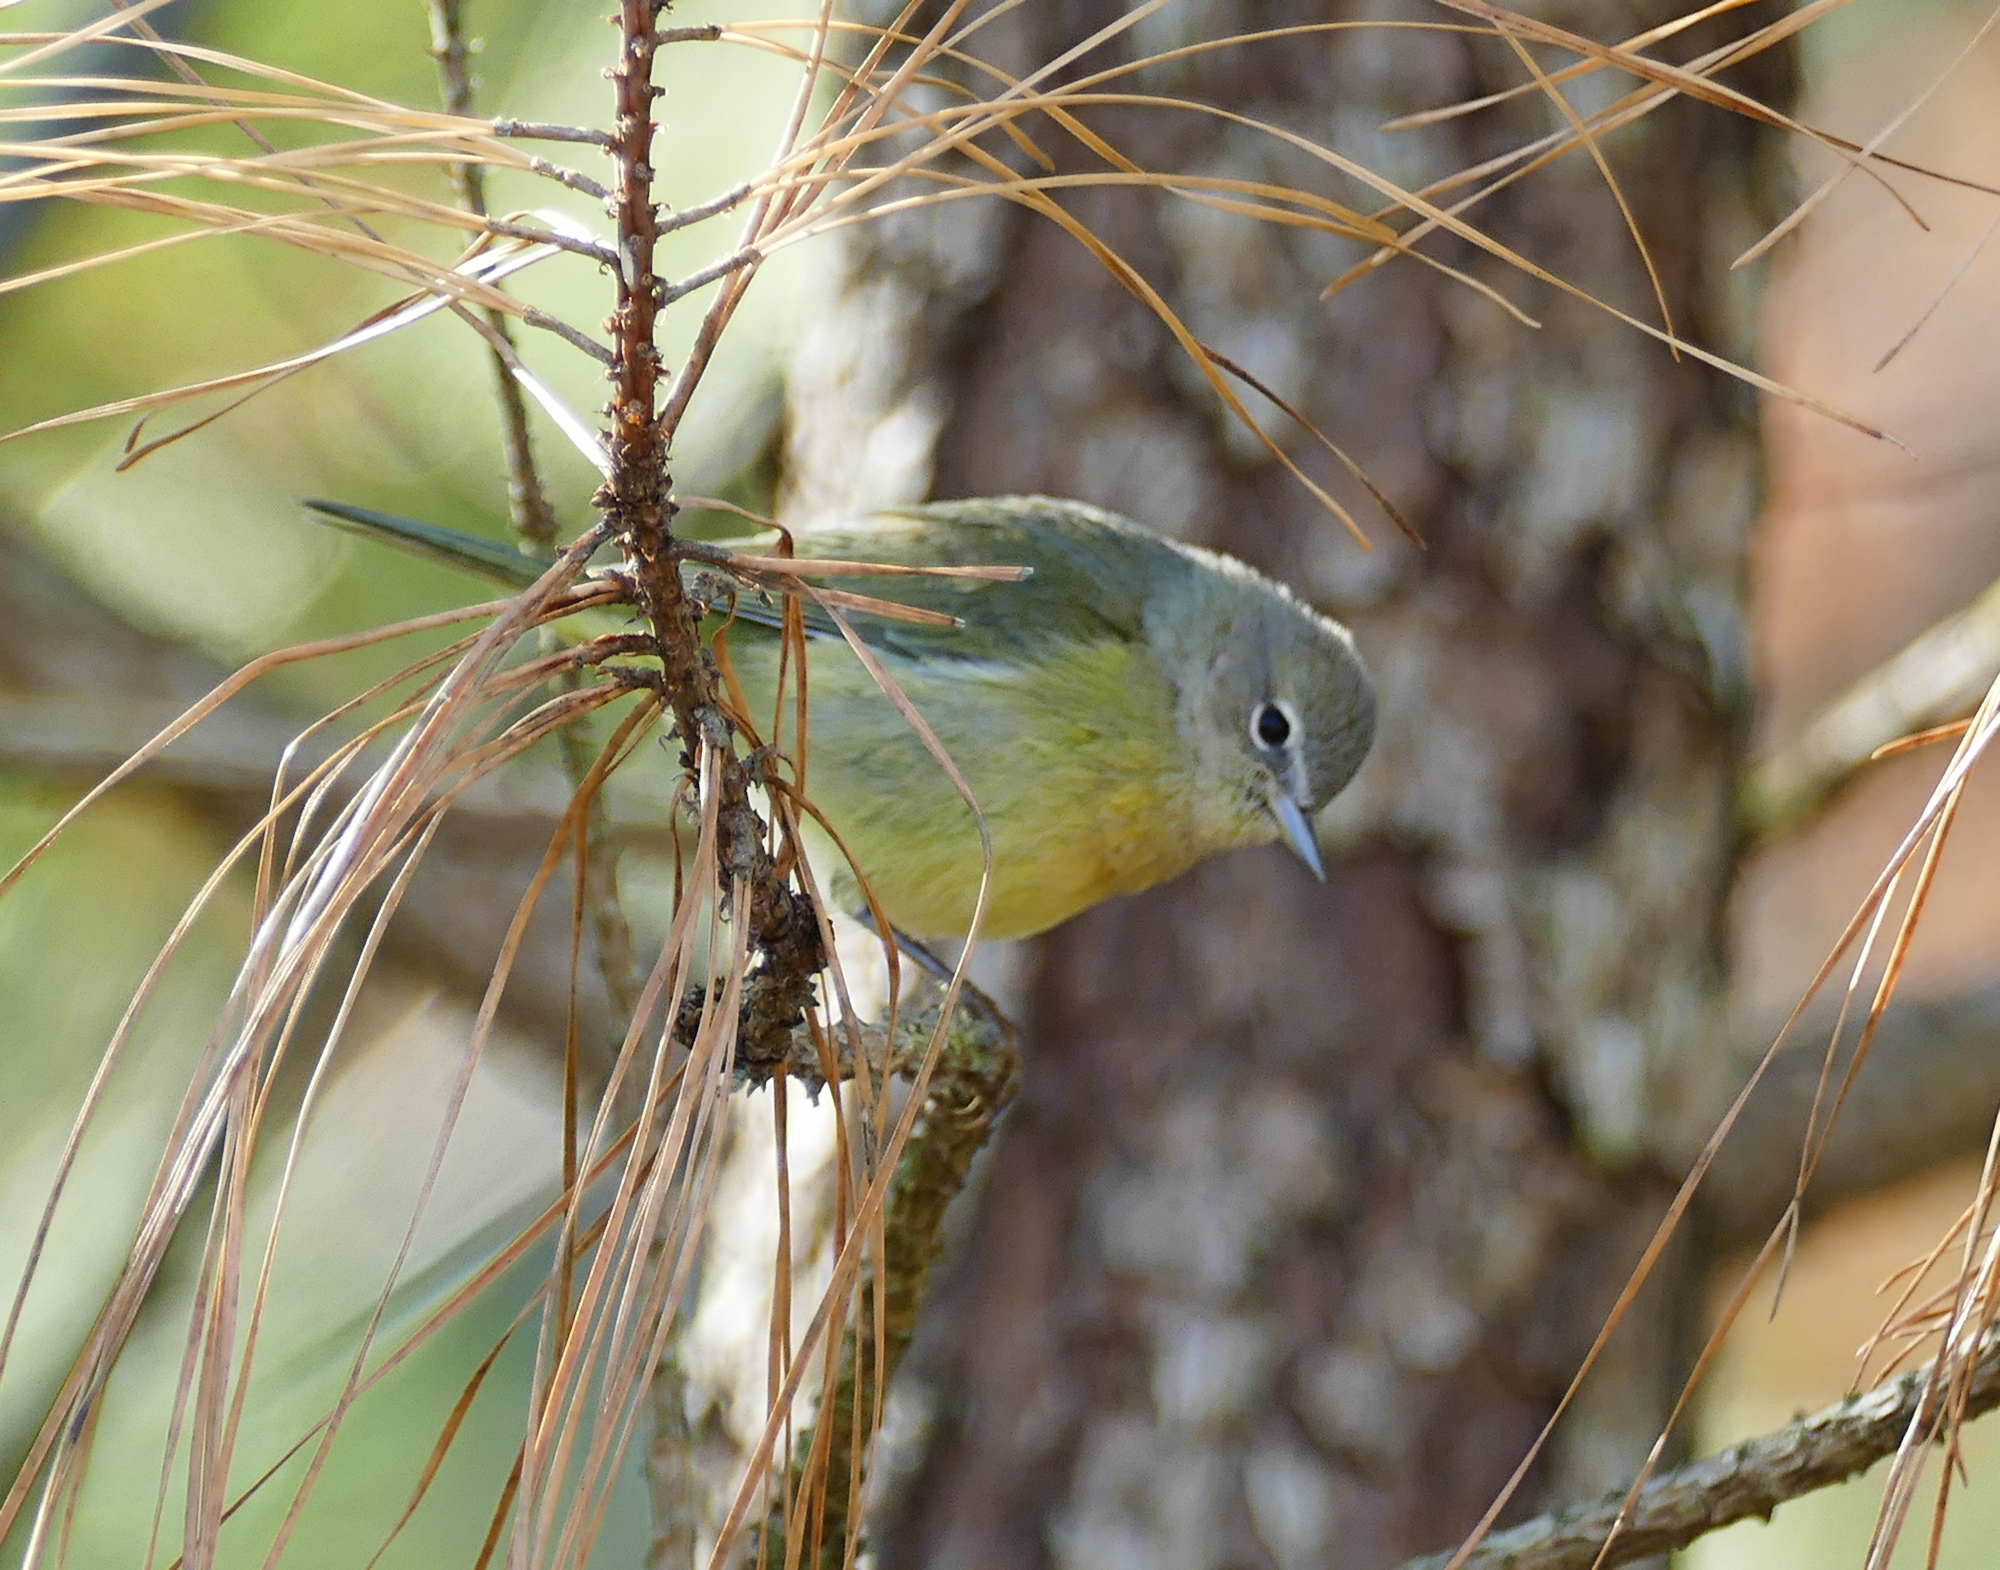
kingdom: Animalia
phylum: Chordata
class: Aves
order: Passeriformes
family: Parulidae
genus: Leiothlypis
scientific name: Leiothlypis celata
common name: Orange-crowned warbler
